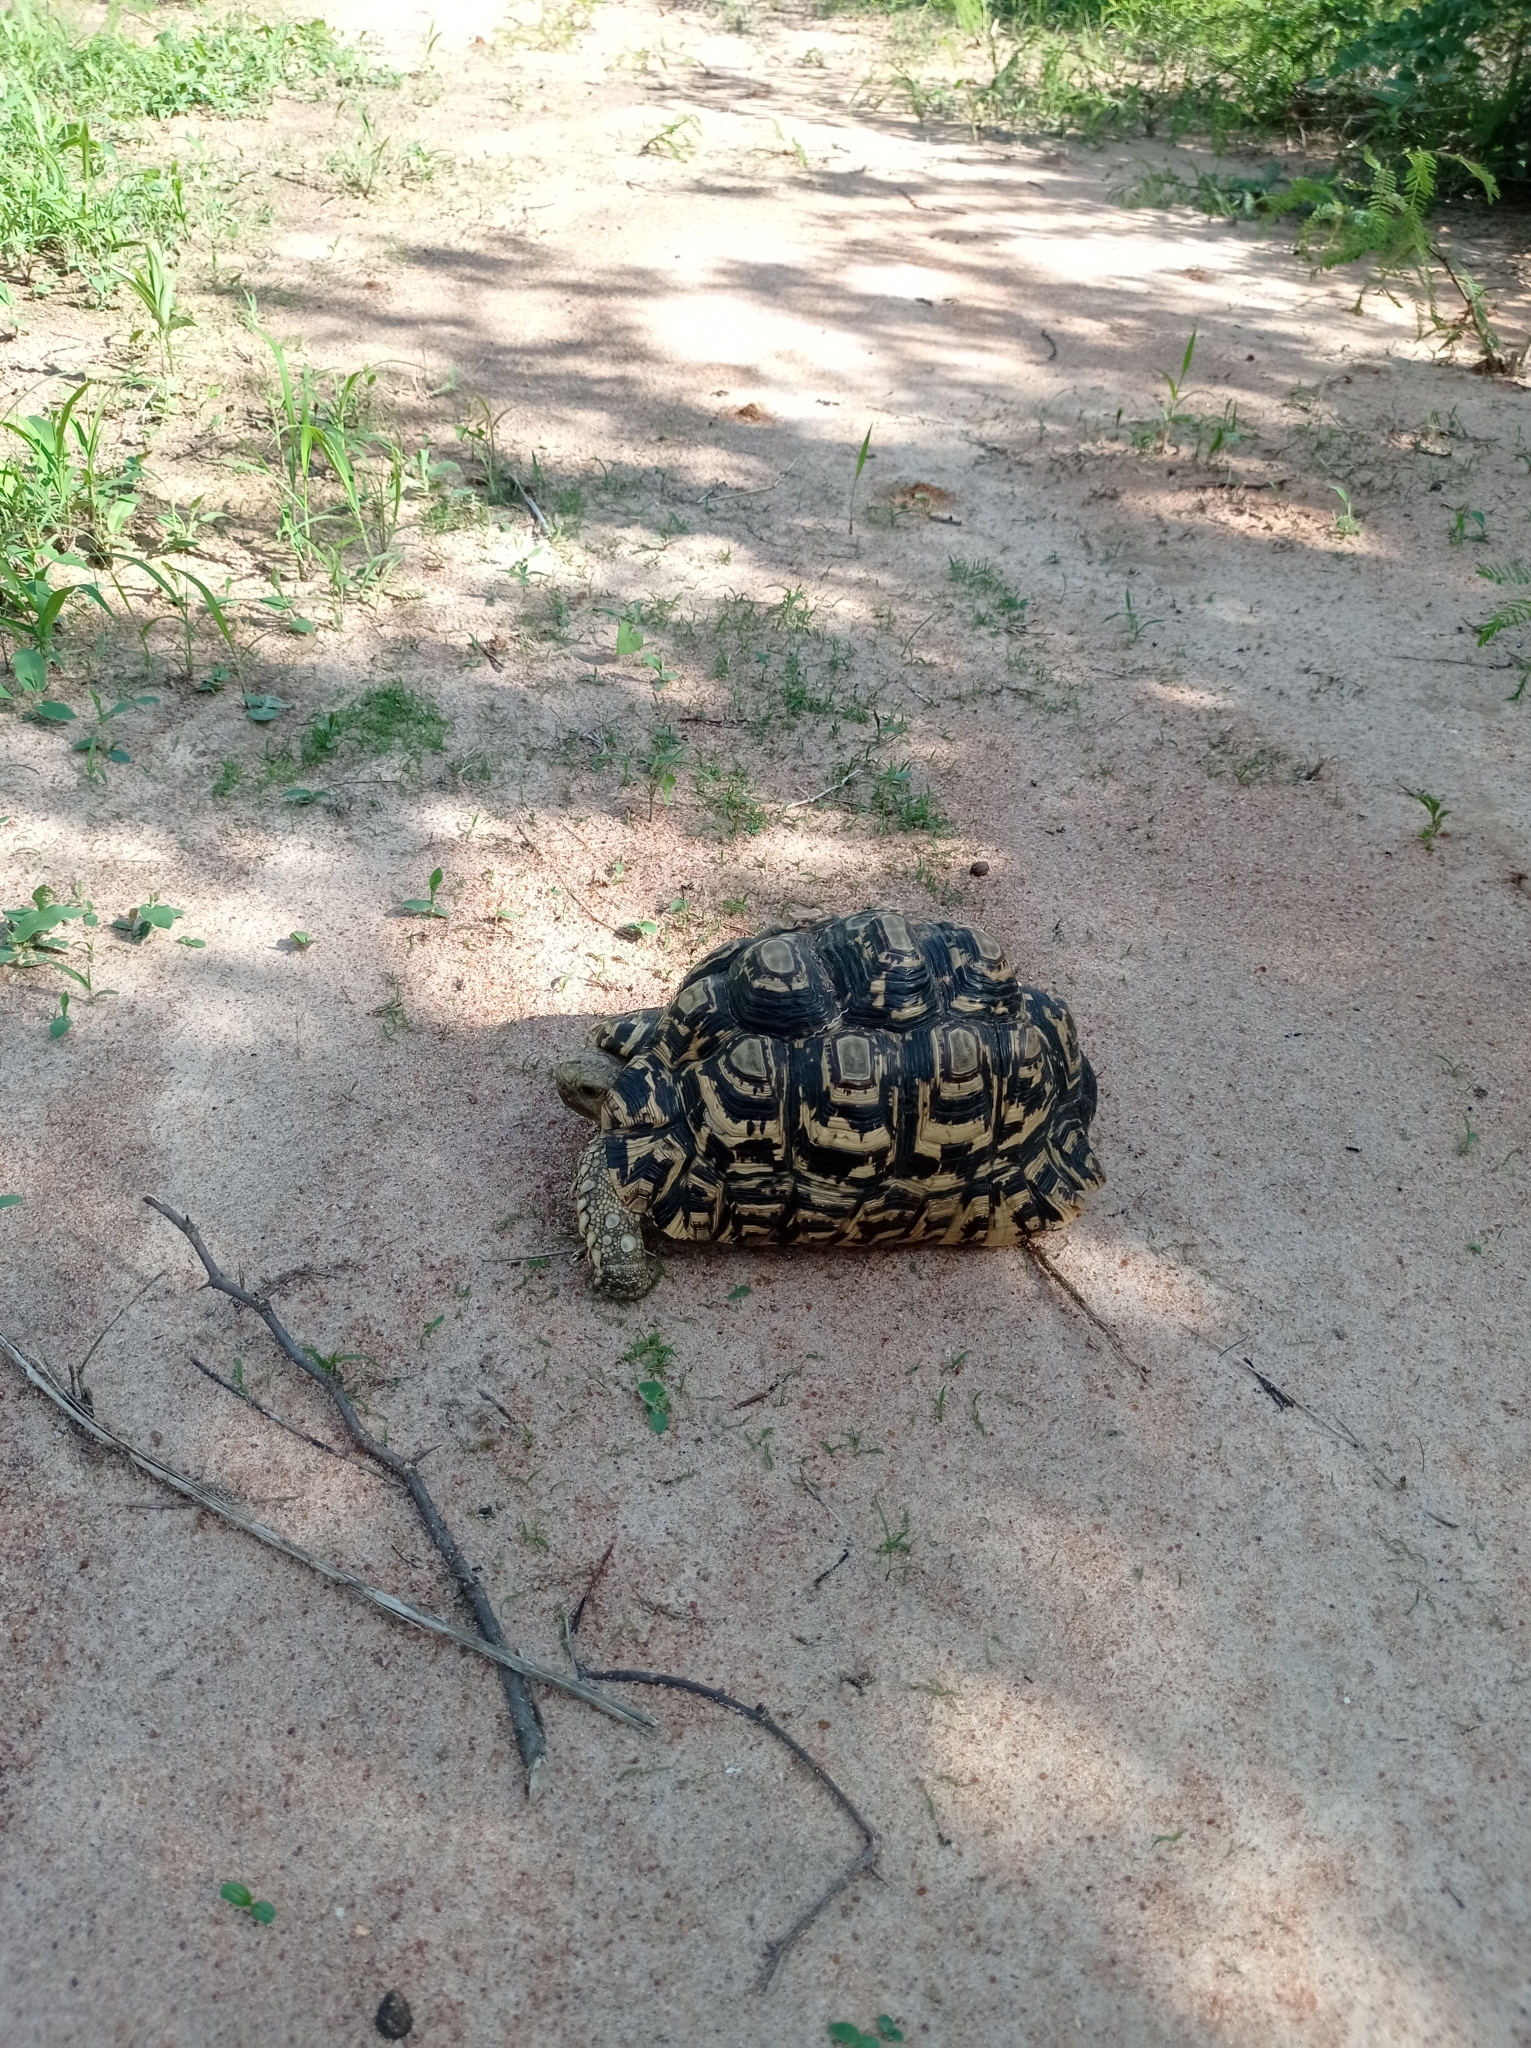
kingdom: Animalia
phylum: Chordata
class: Testudines
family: Testudinidae
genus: Stigmochelys
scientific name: Stigmochelys pardalis
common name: Leopard tortoise
